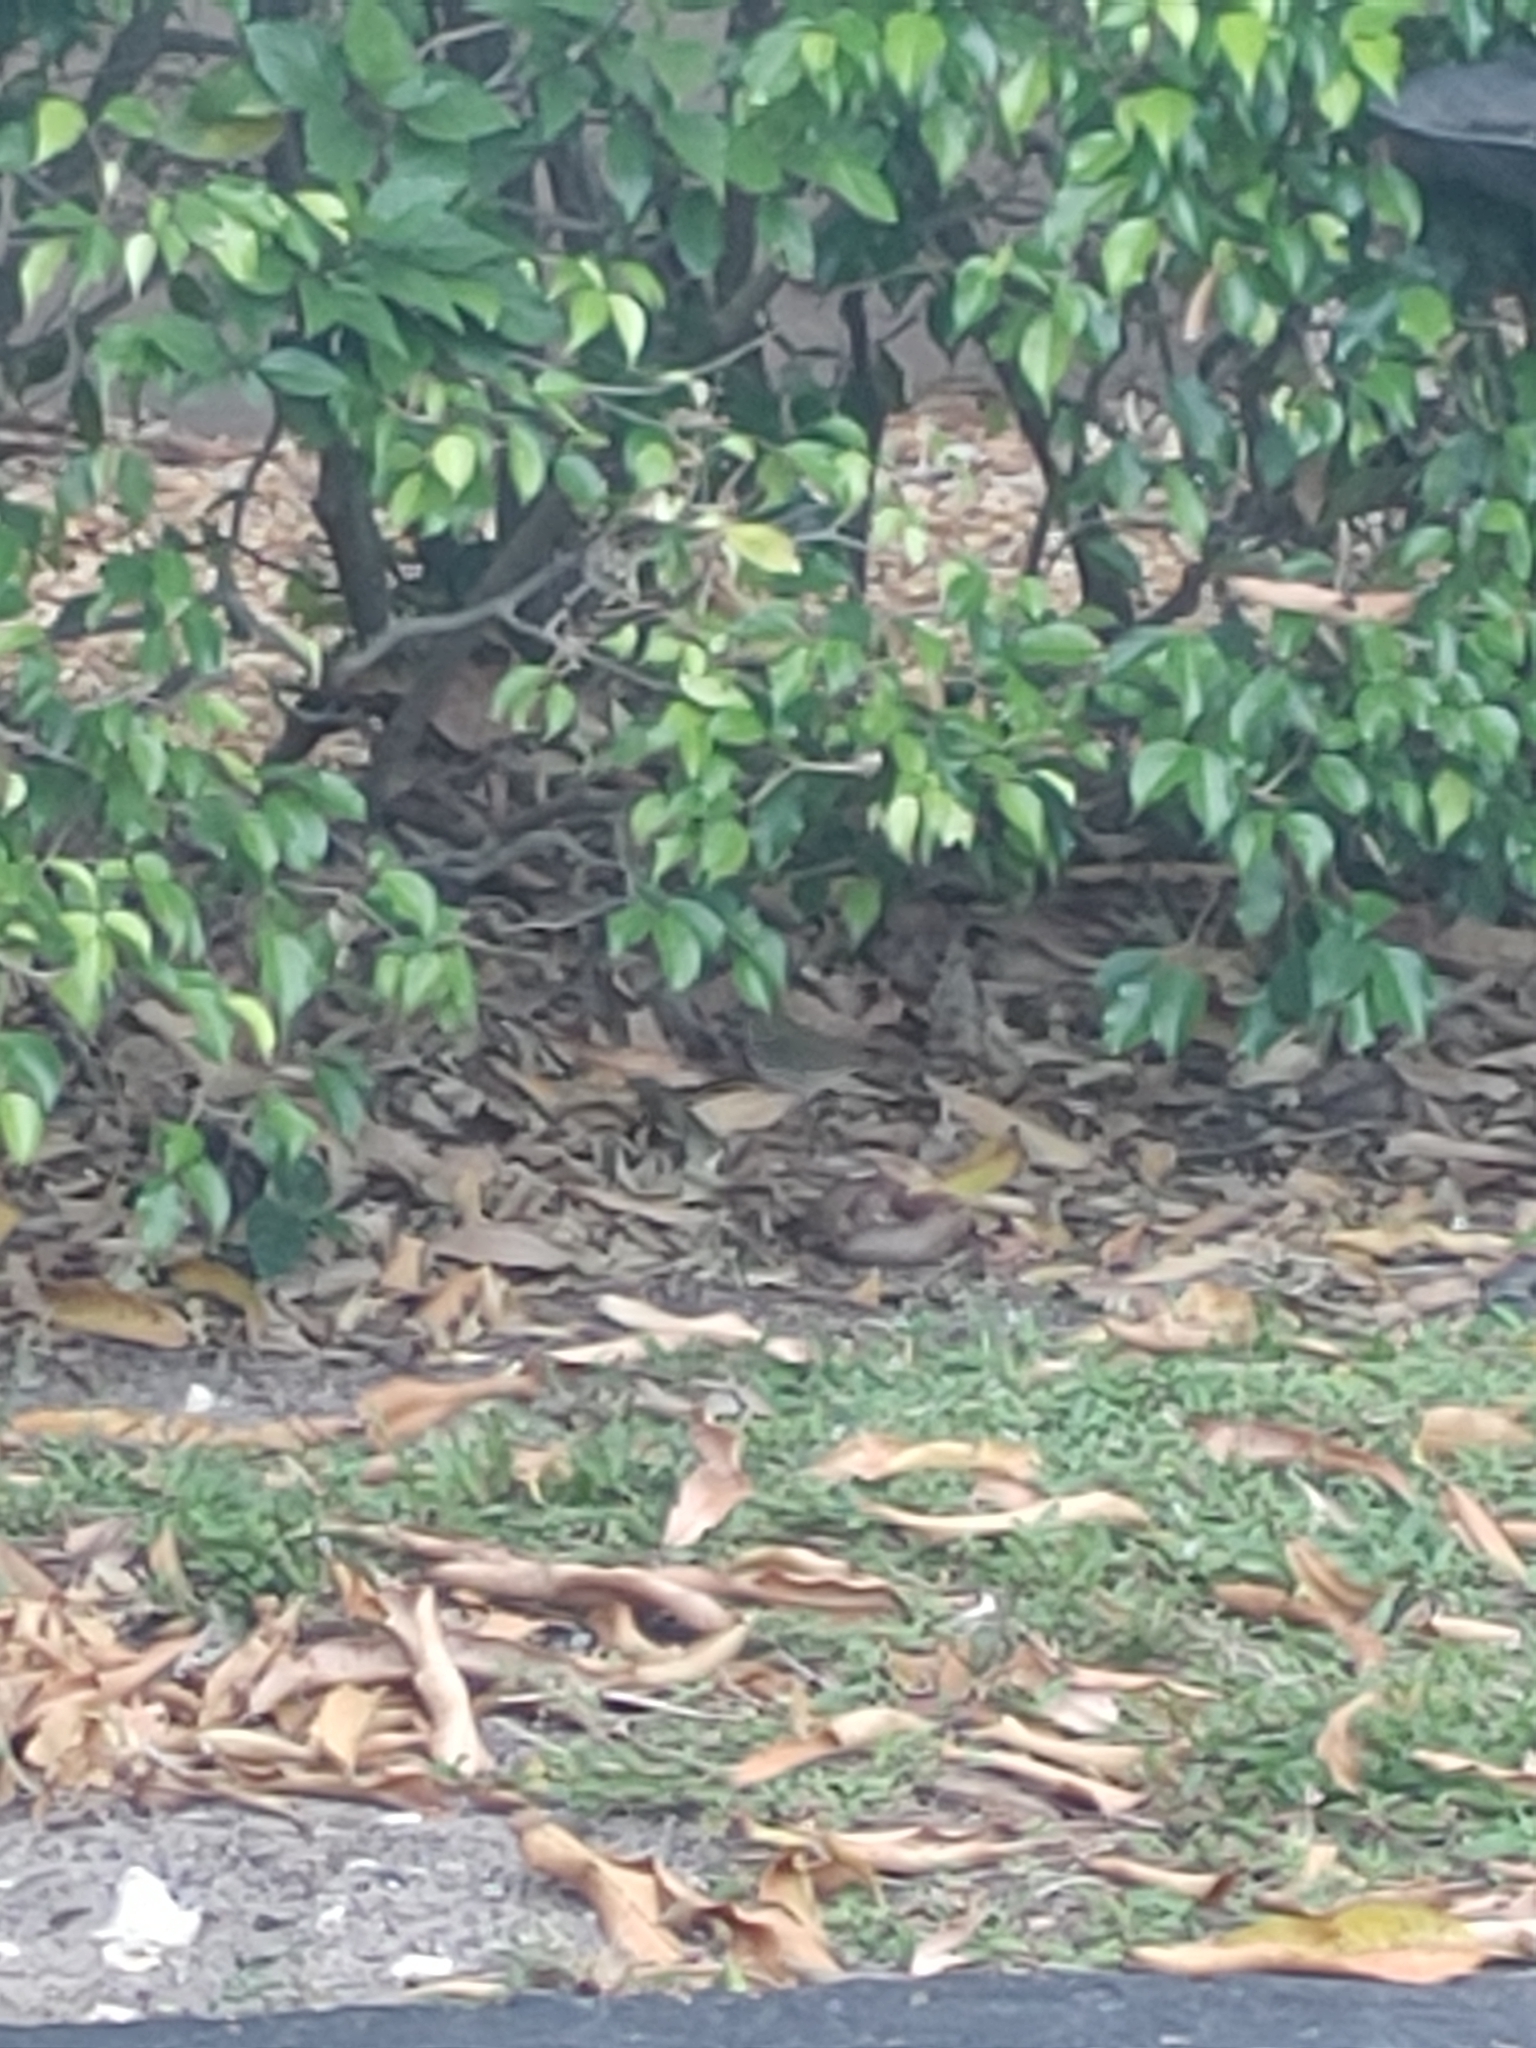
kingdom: Animalia
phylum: Chordata
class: Aves
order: Passeriformes
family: Parulidae
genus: Seiurus
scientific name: Seiurus aurocapilla
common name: Ovenbird
